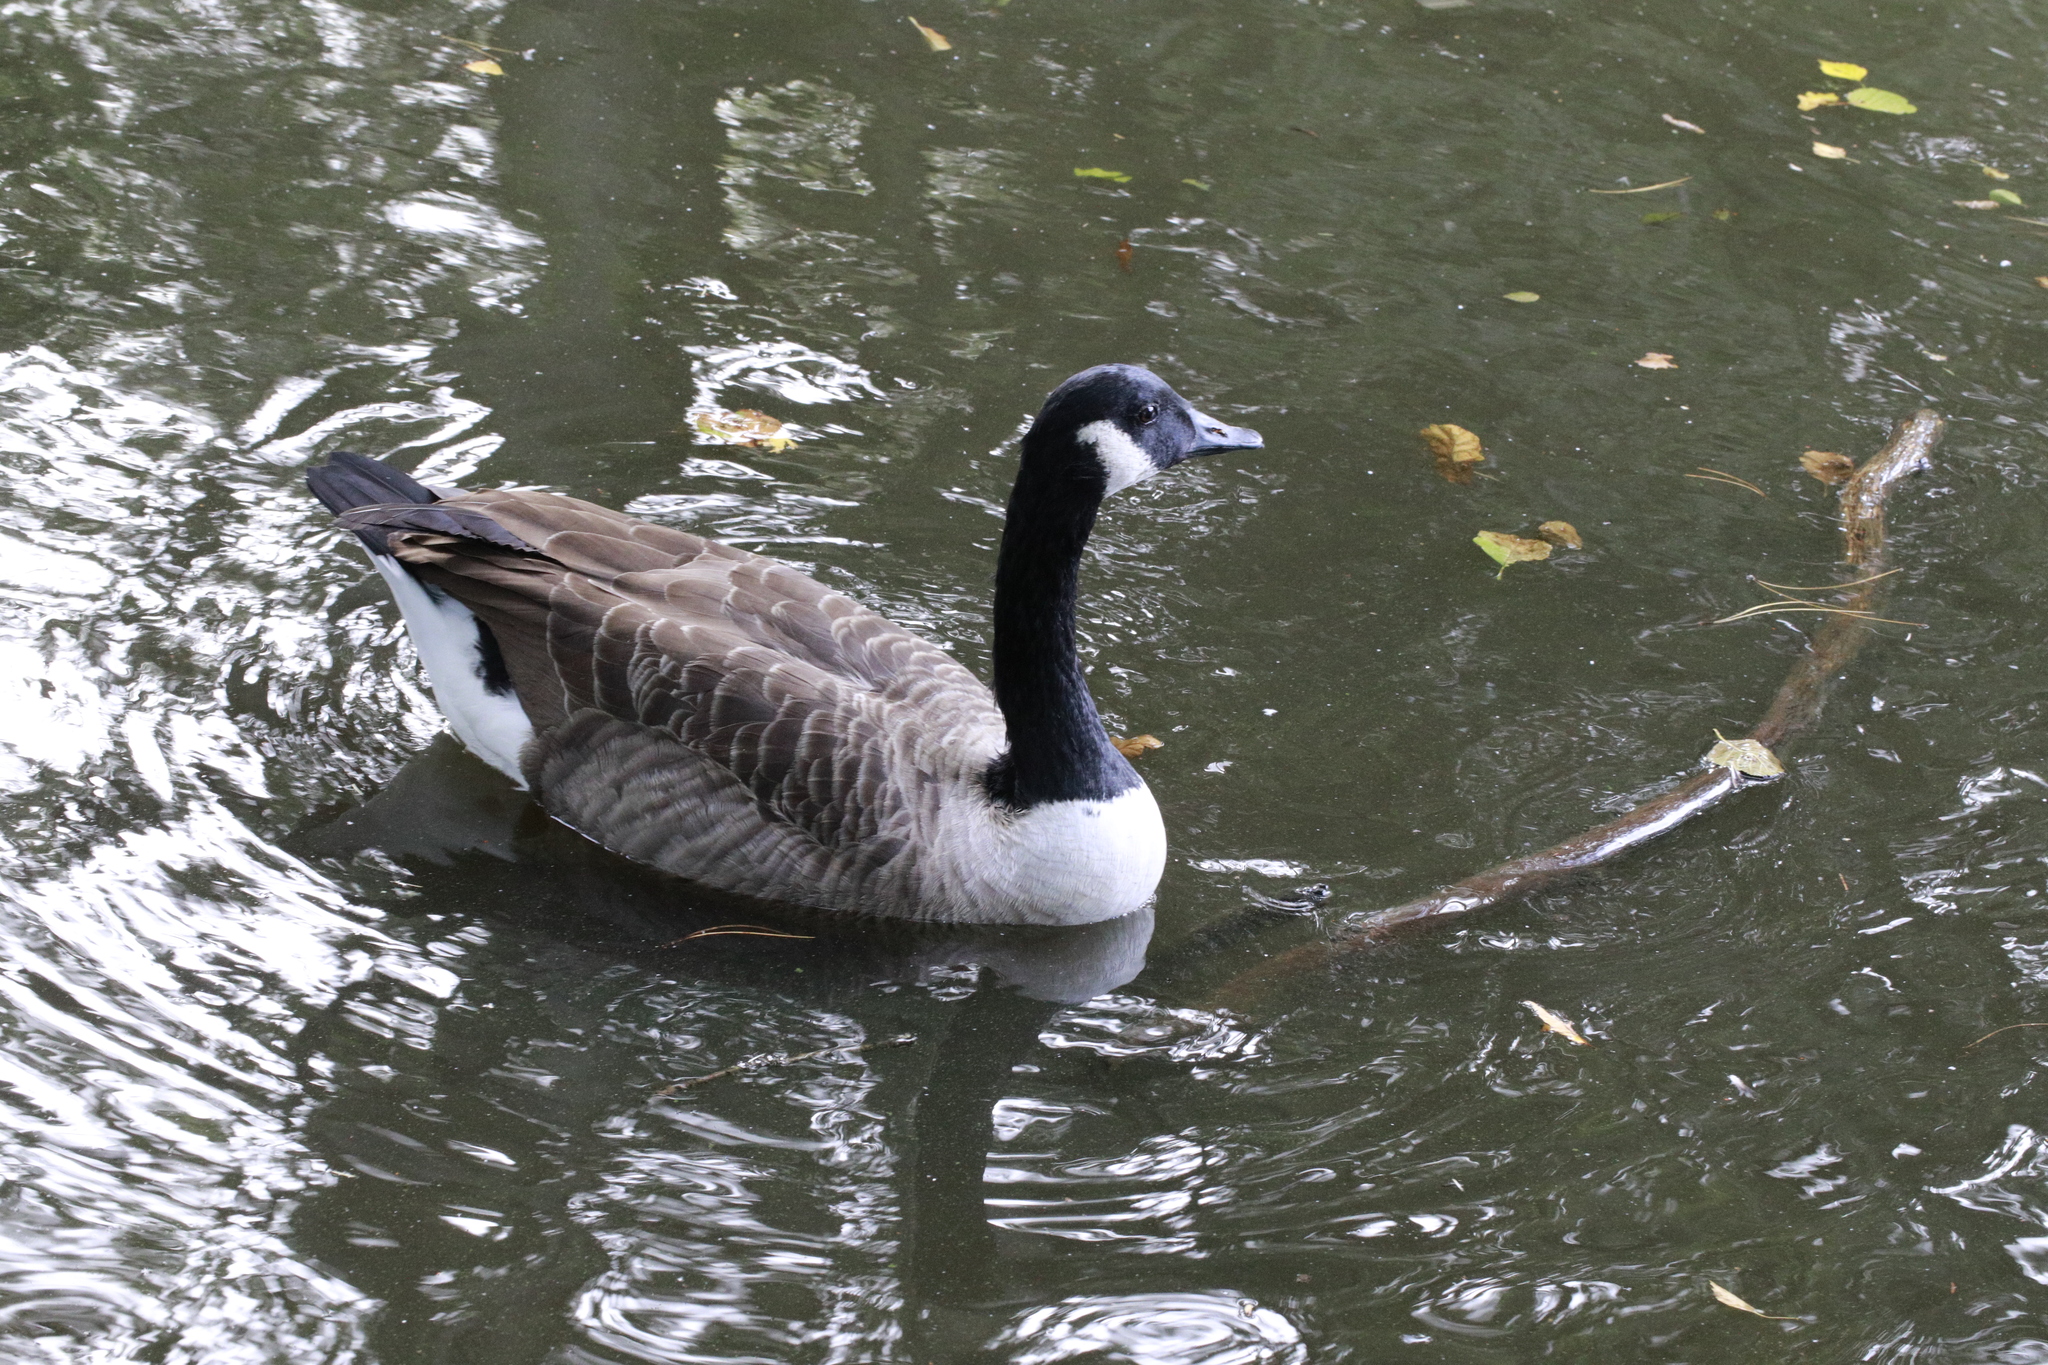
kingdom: Animalia
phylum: Chordata
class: Aves
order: Anseriformes
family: Anatidae
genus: Branta
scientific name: Branta canadensis
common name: Canada goose
